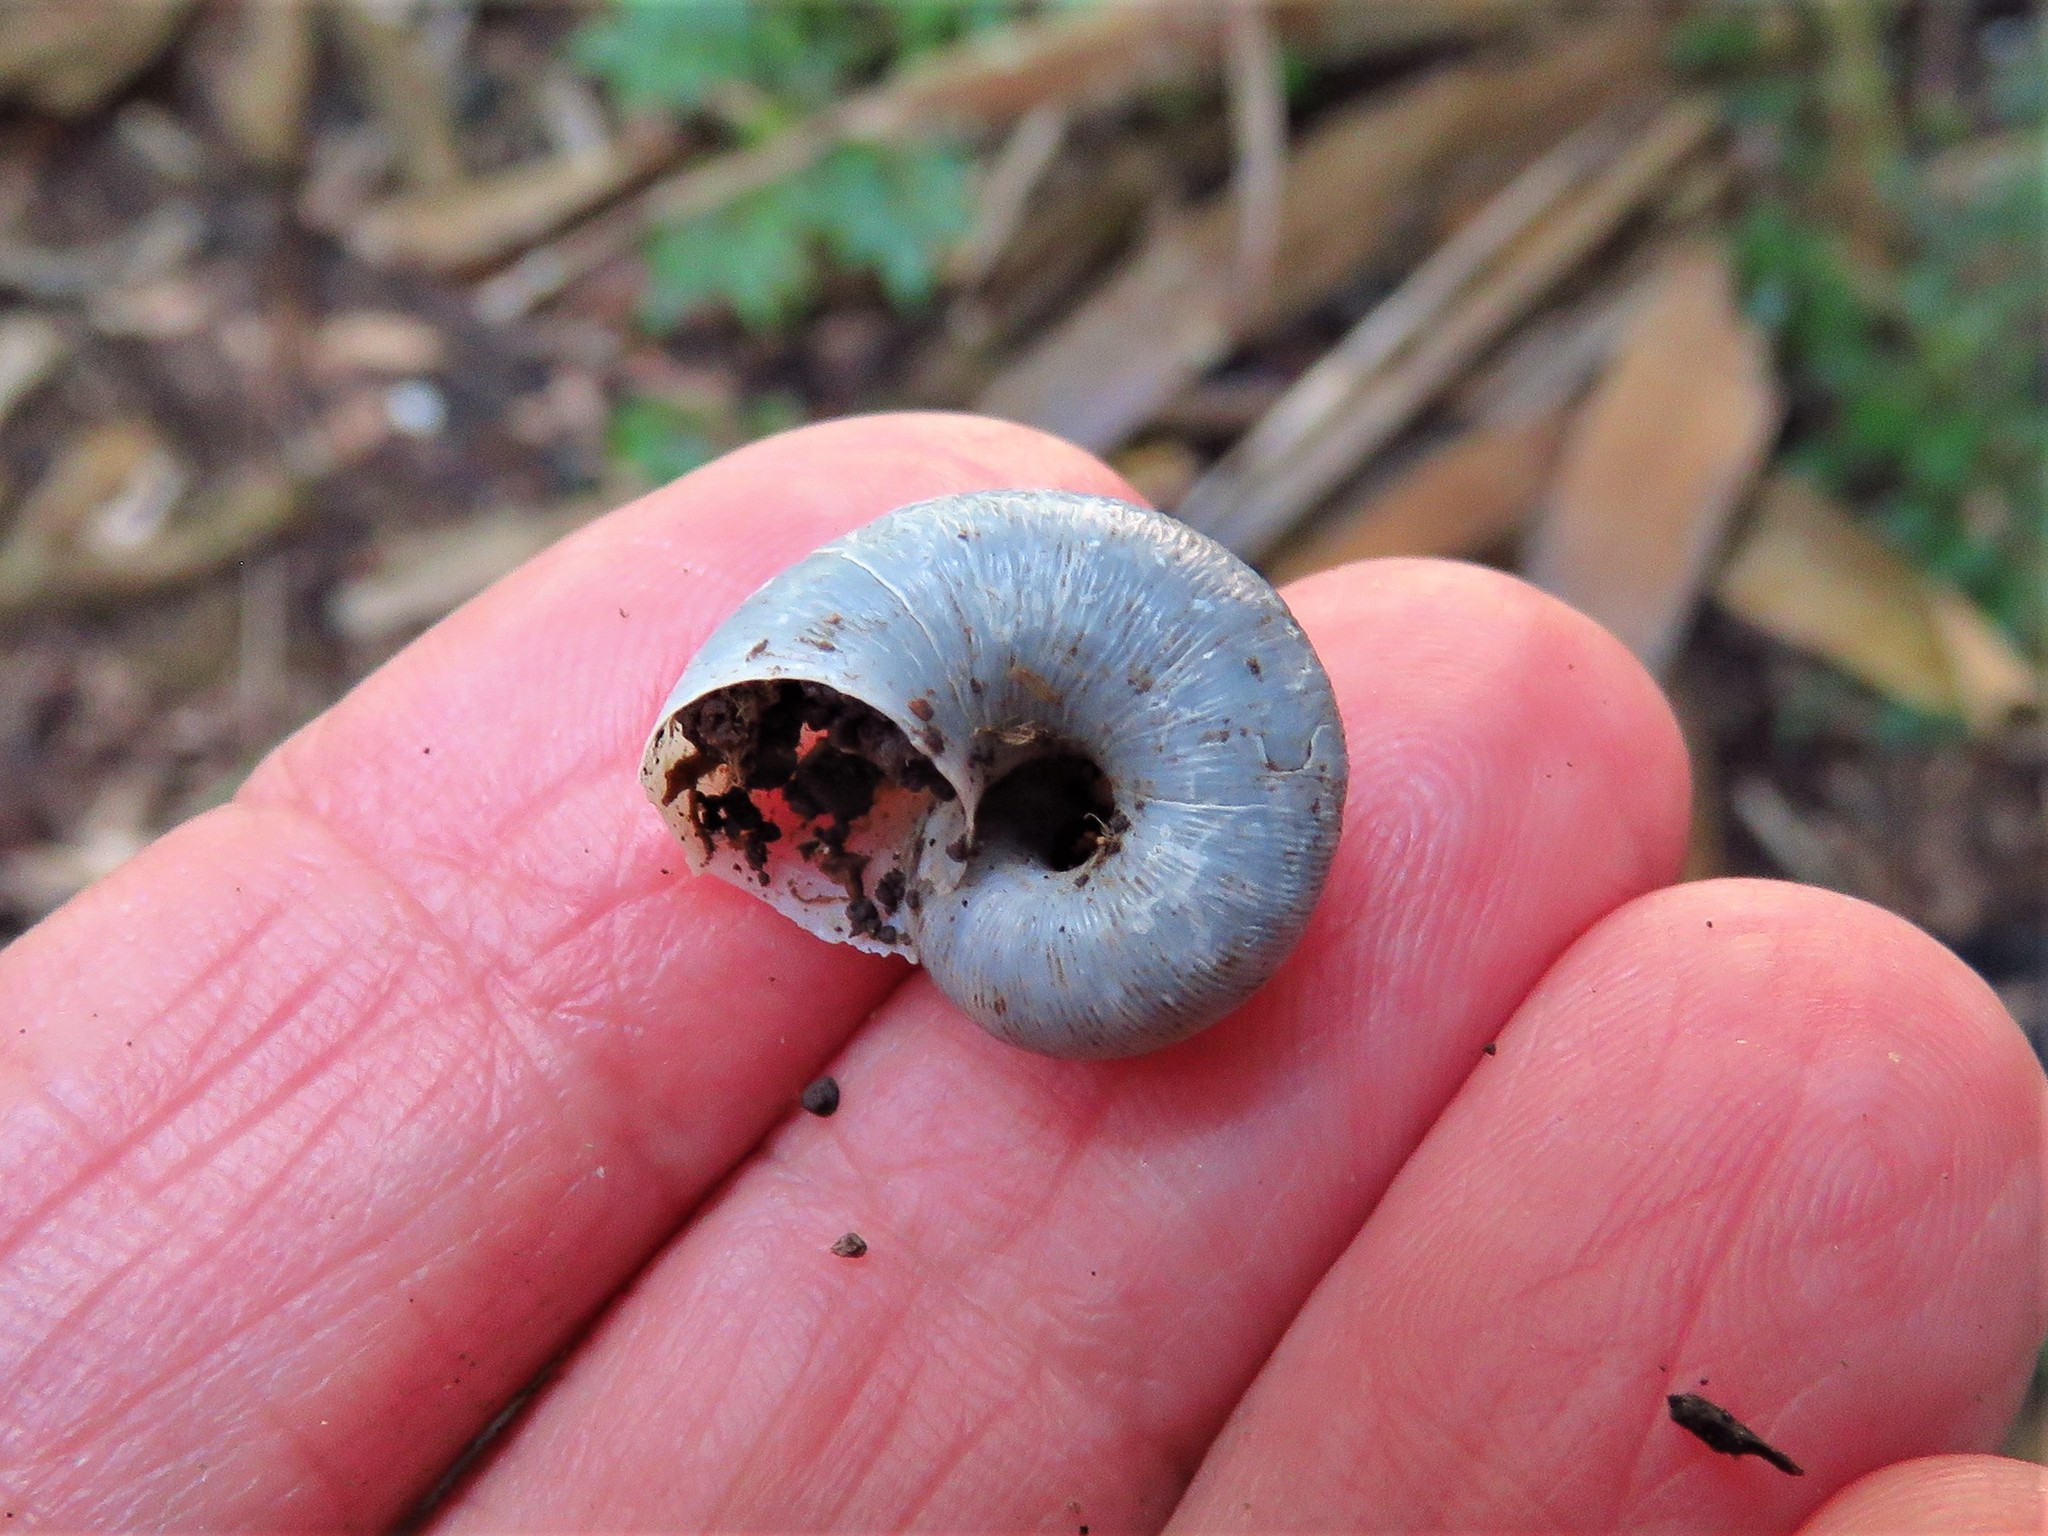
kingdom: Animalia
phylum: Mollusca
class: Gastropoda
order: Architaenioglossa
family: Neocyclotidae
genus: Neocyclotus
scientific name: Neocyclotus dysoni
